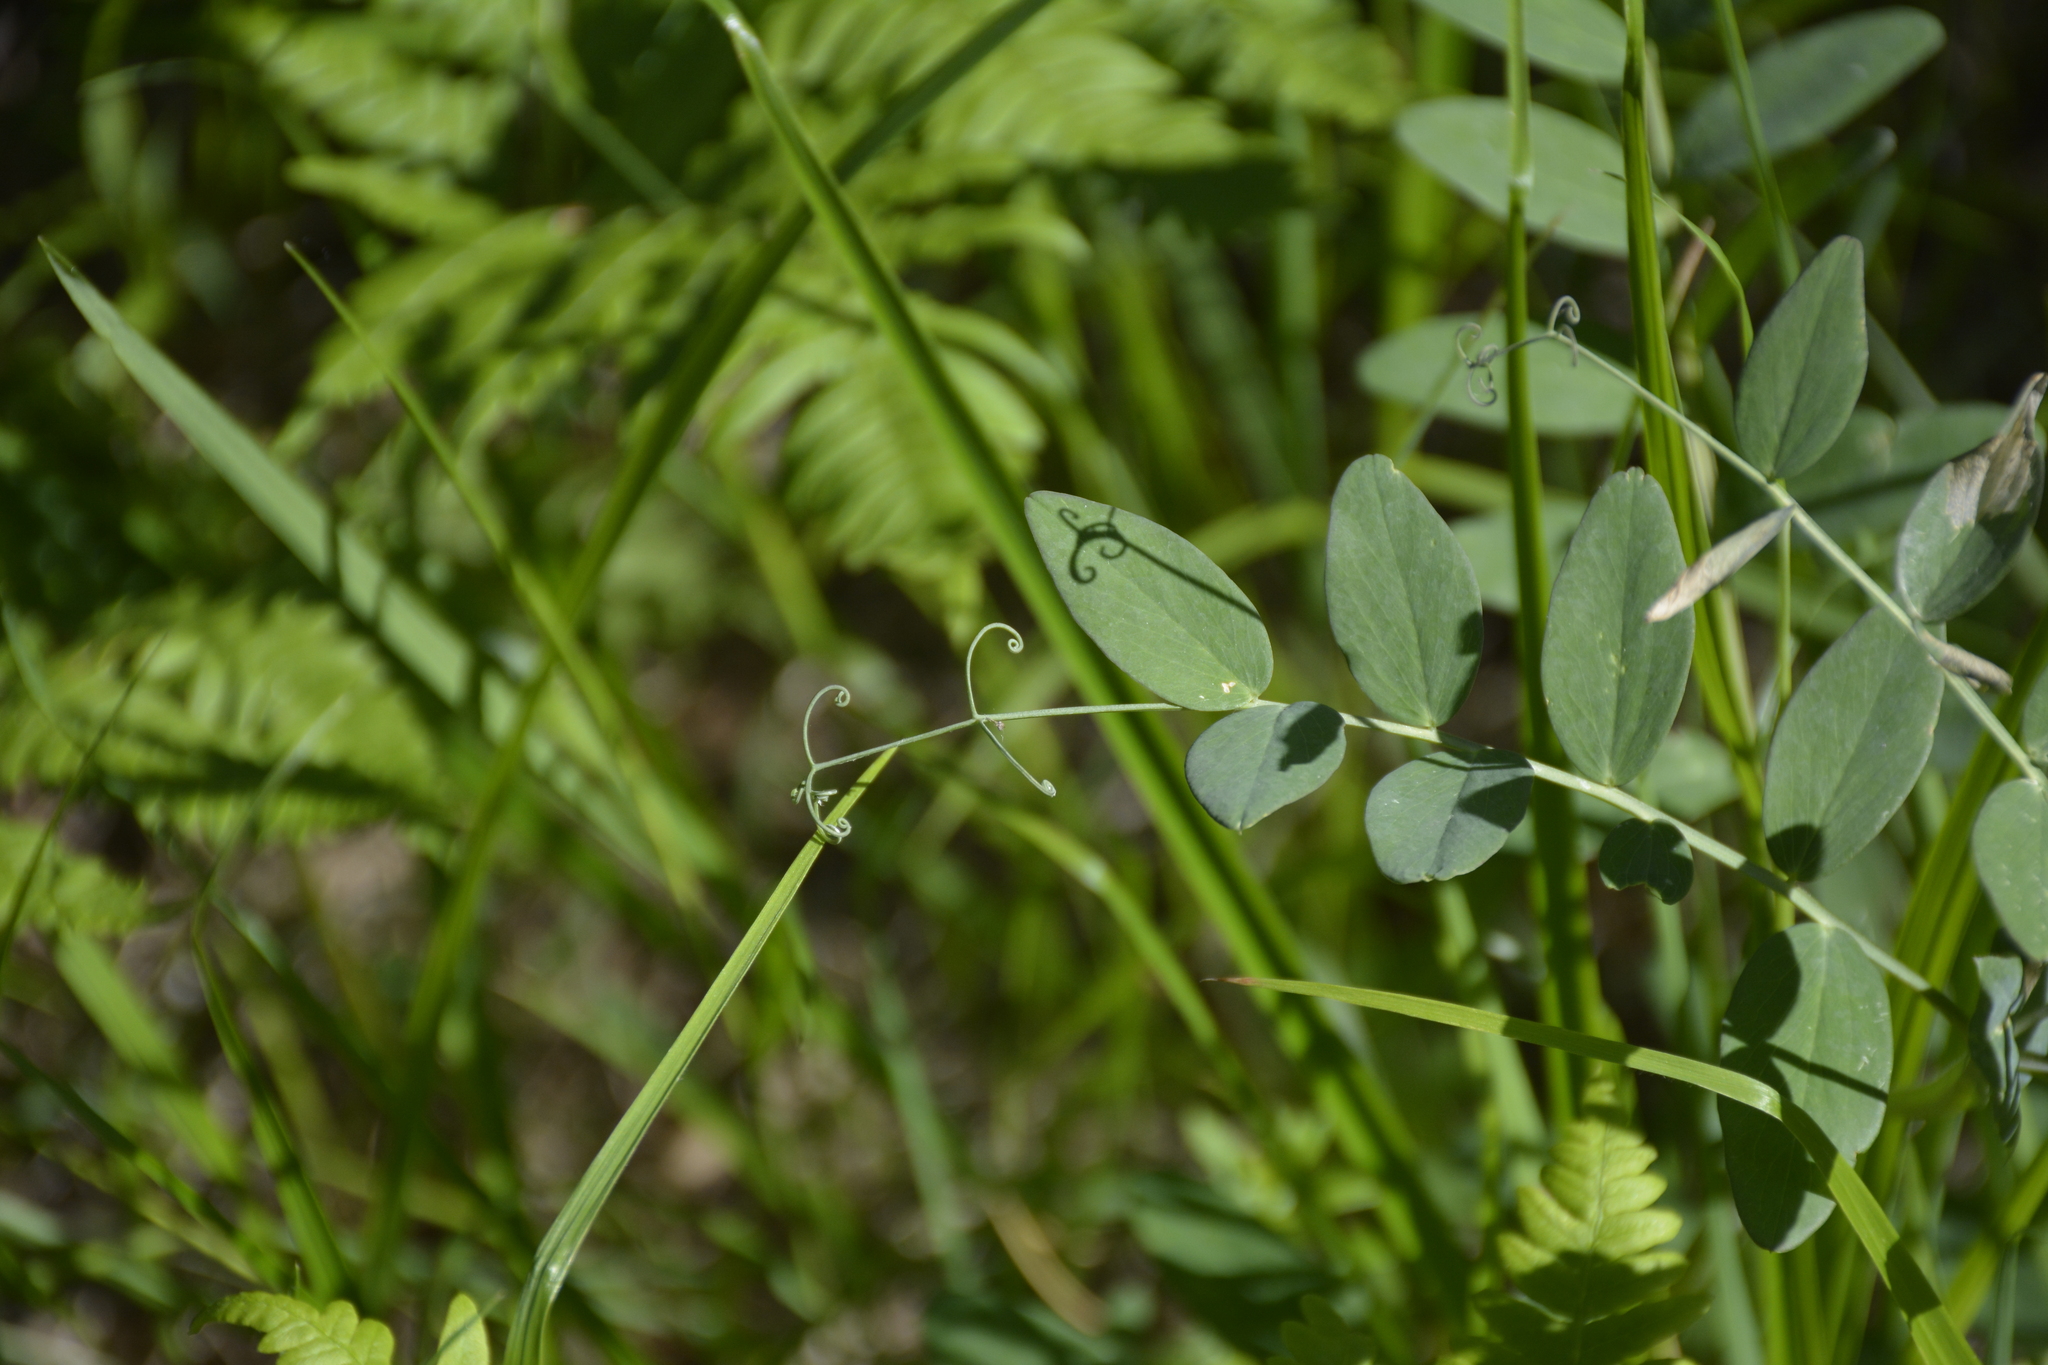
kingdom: Plantae
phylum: Tracheophyta
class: Magnoliopsida
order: Fabales
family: Fabaceae
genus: Lathyrus
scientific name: Lathyrus pisiformis
